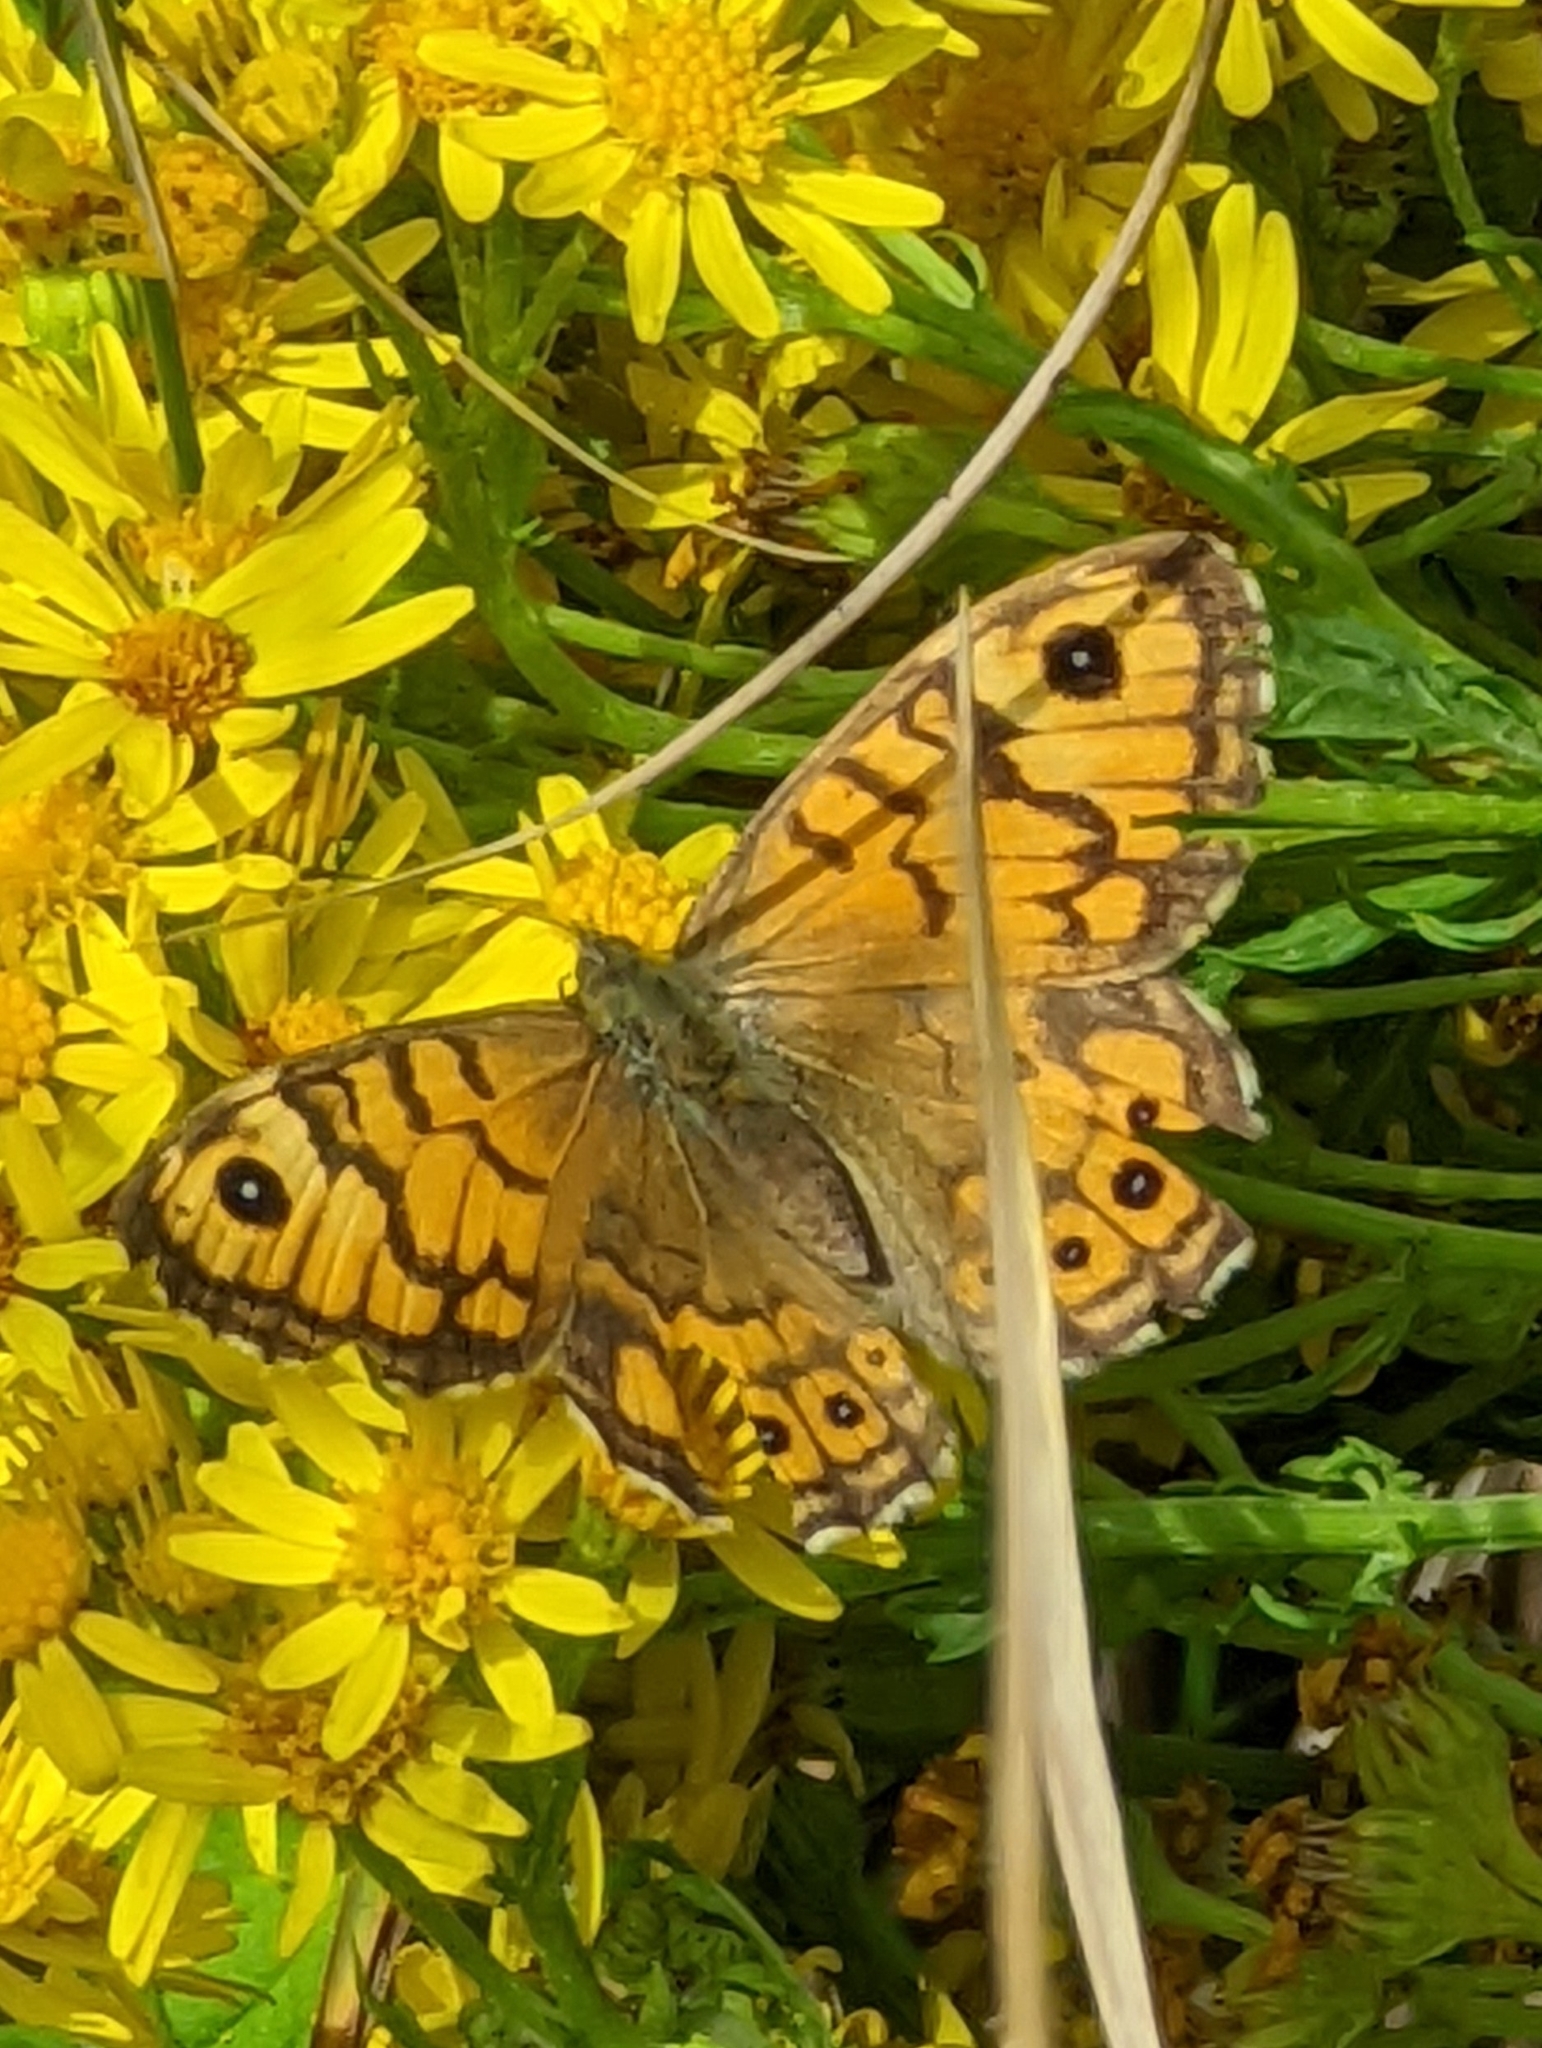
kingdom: Animalia
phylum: Arthropoda
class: Insecta
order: Lepidoptera
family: Nymphalidae
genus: Pararge
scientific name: Pararge Lasiommata megera
